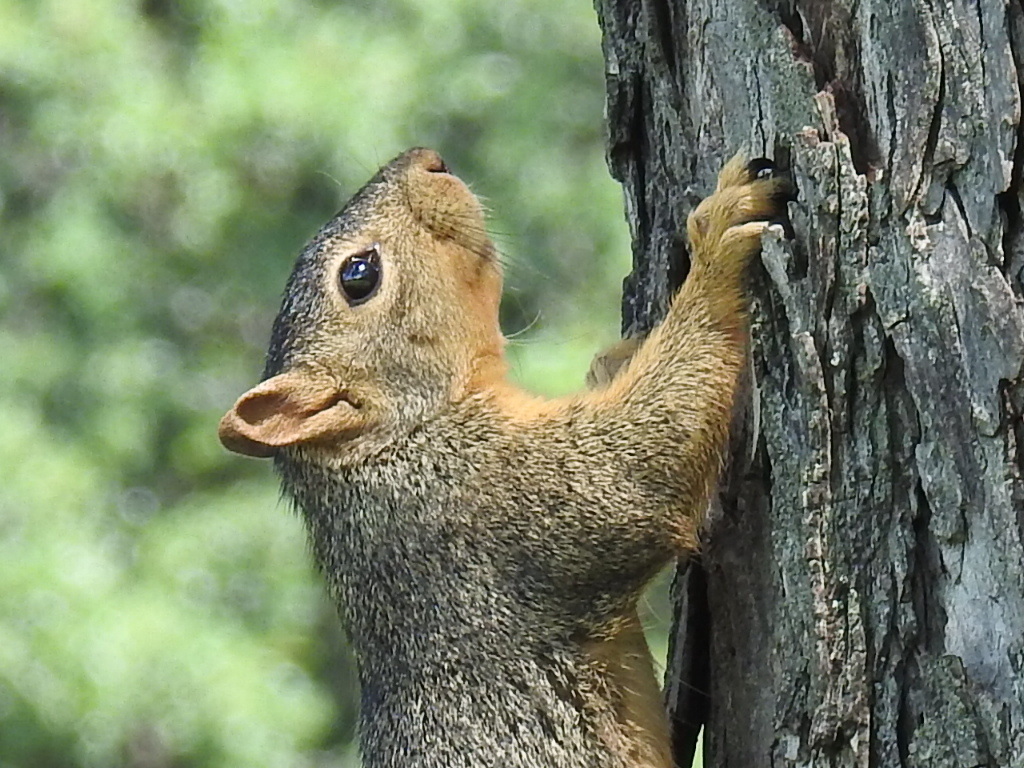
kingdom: Animalia
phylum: Chordata
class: Mammalia
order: Rodentia
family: Sciuridae
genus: Sciurus
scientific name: Sciurus niger
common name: Fox squirrel
